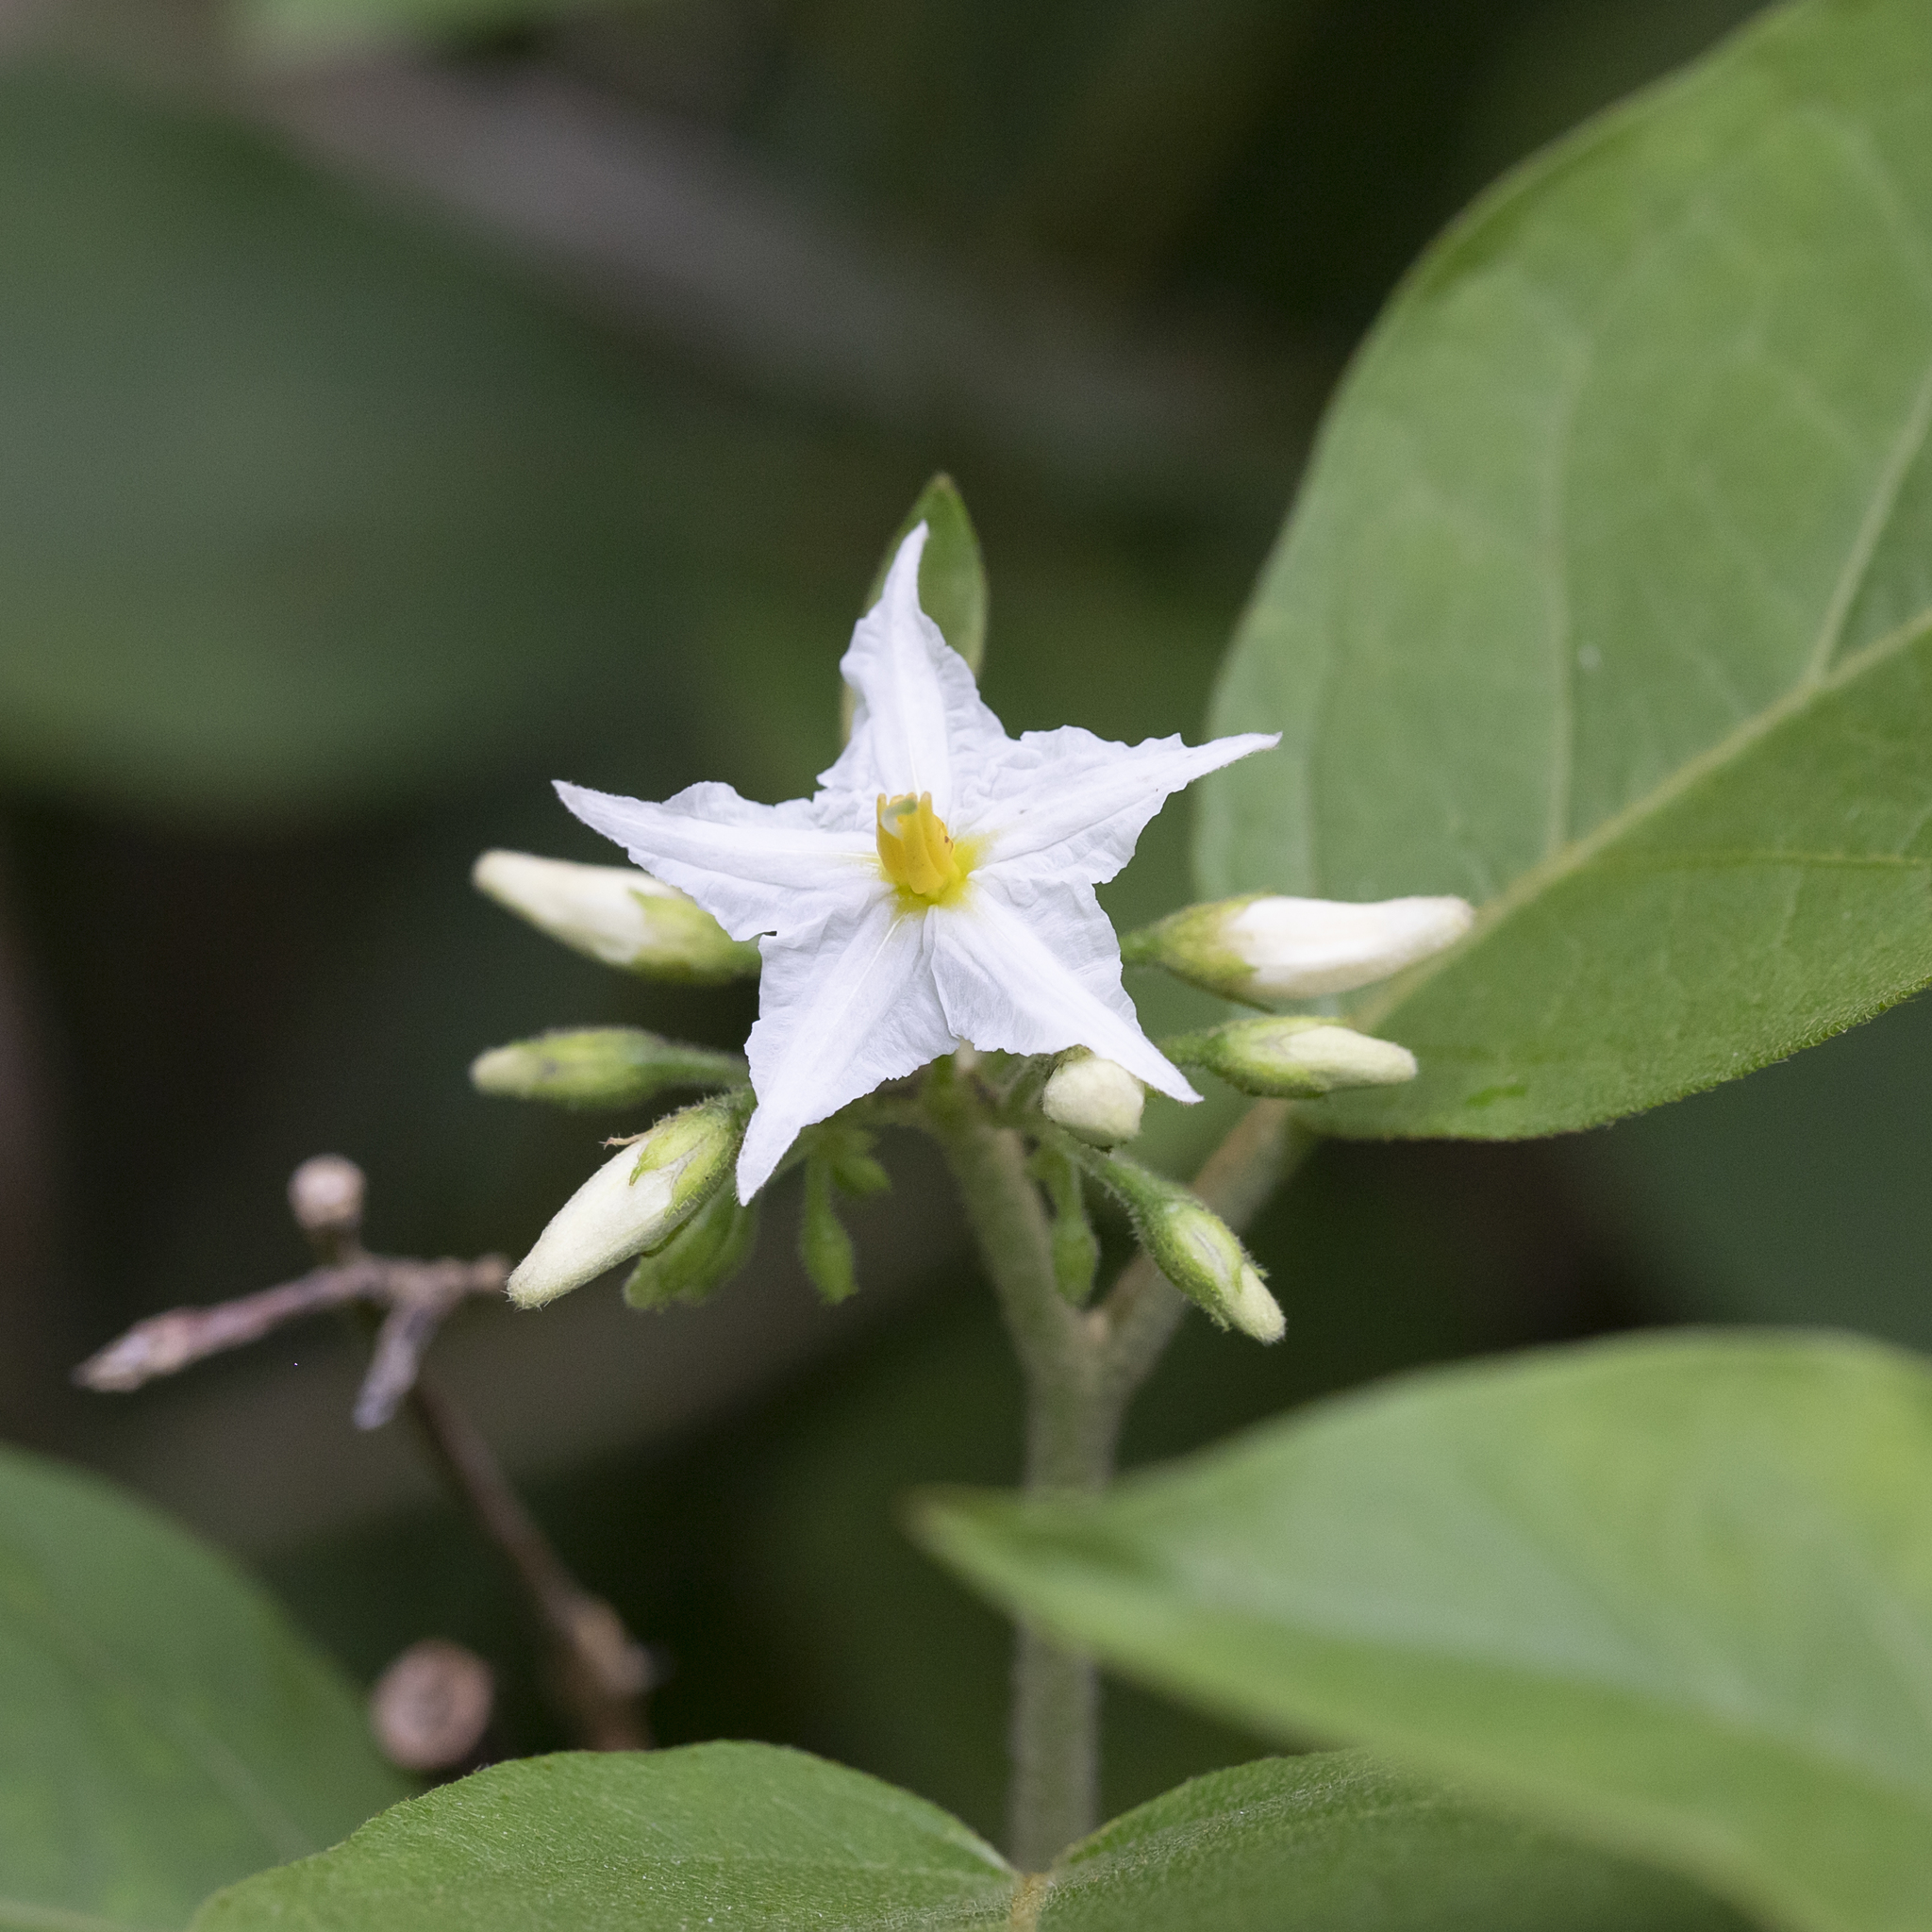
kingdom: Plantae
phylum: Tracheophyta
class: Magnoliopsida
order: Solanales
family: Solanaceae
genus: Solanum
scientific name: Solanum torvum
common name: Turkey berry
